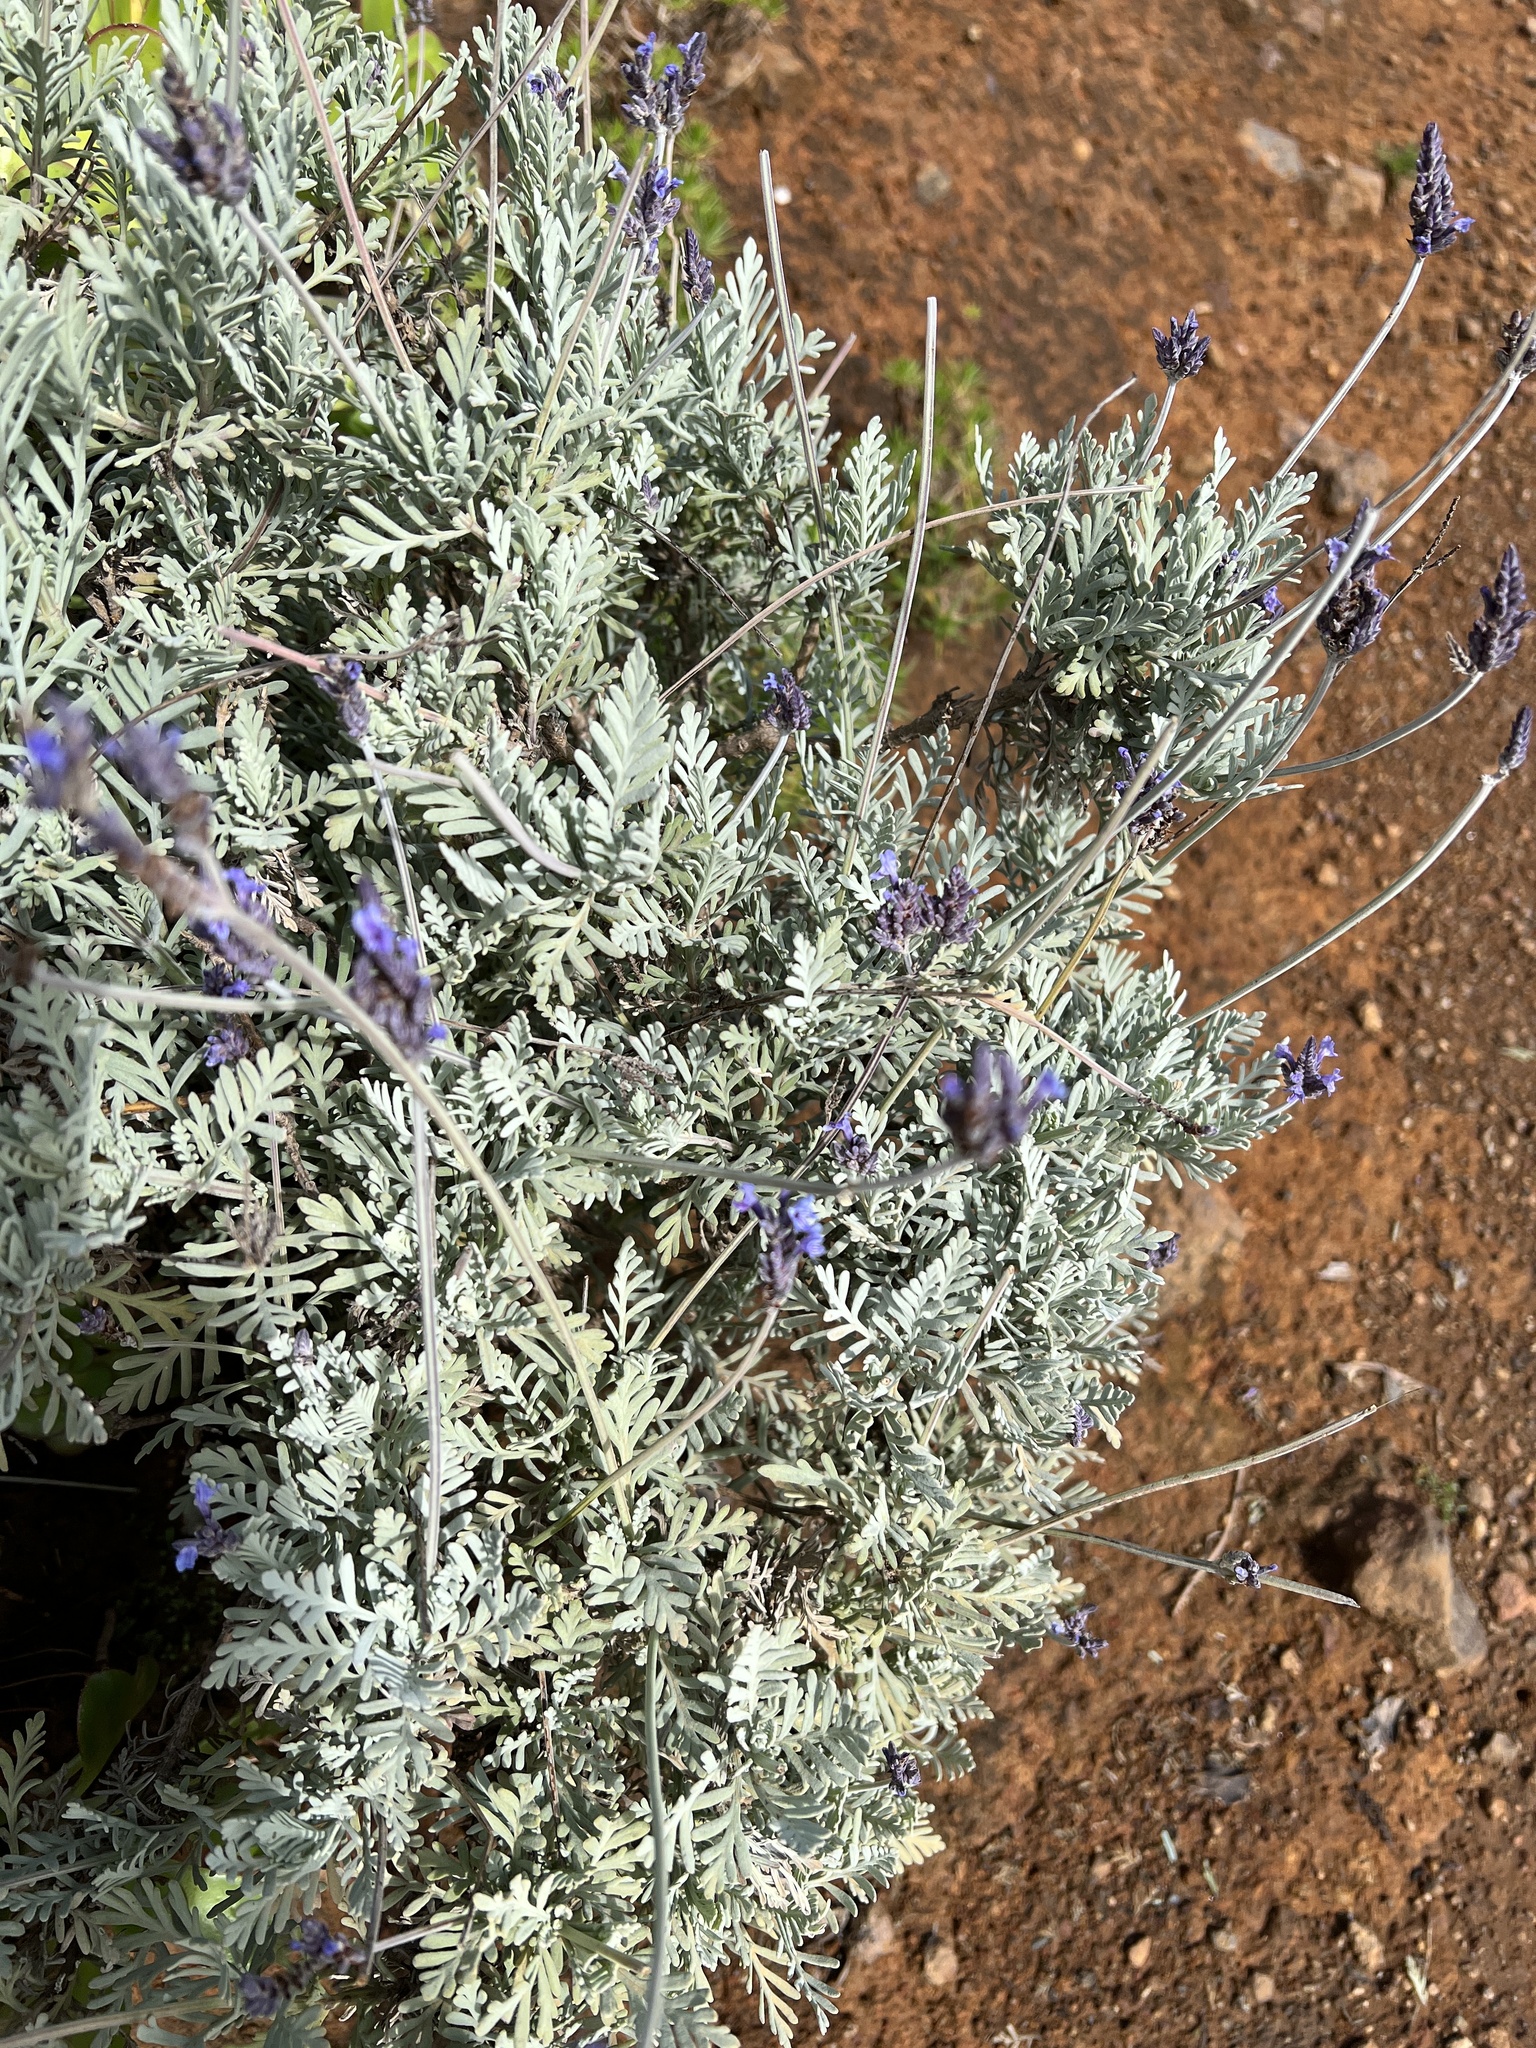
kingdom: Plantae
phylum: Tracheophyta
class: Magnoliopsida
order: Lamiales
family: Lamiaceae
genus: Lavandula
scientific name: Lavandula buchii
